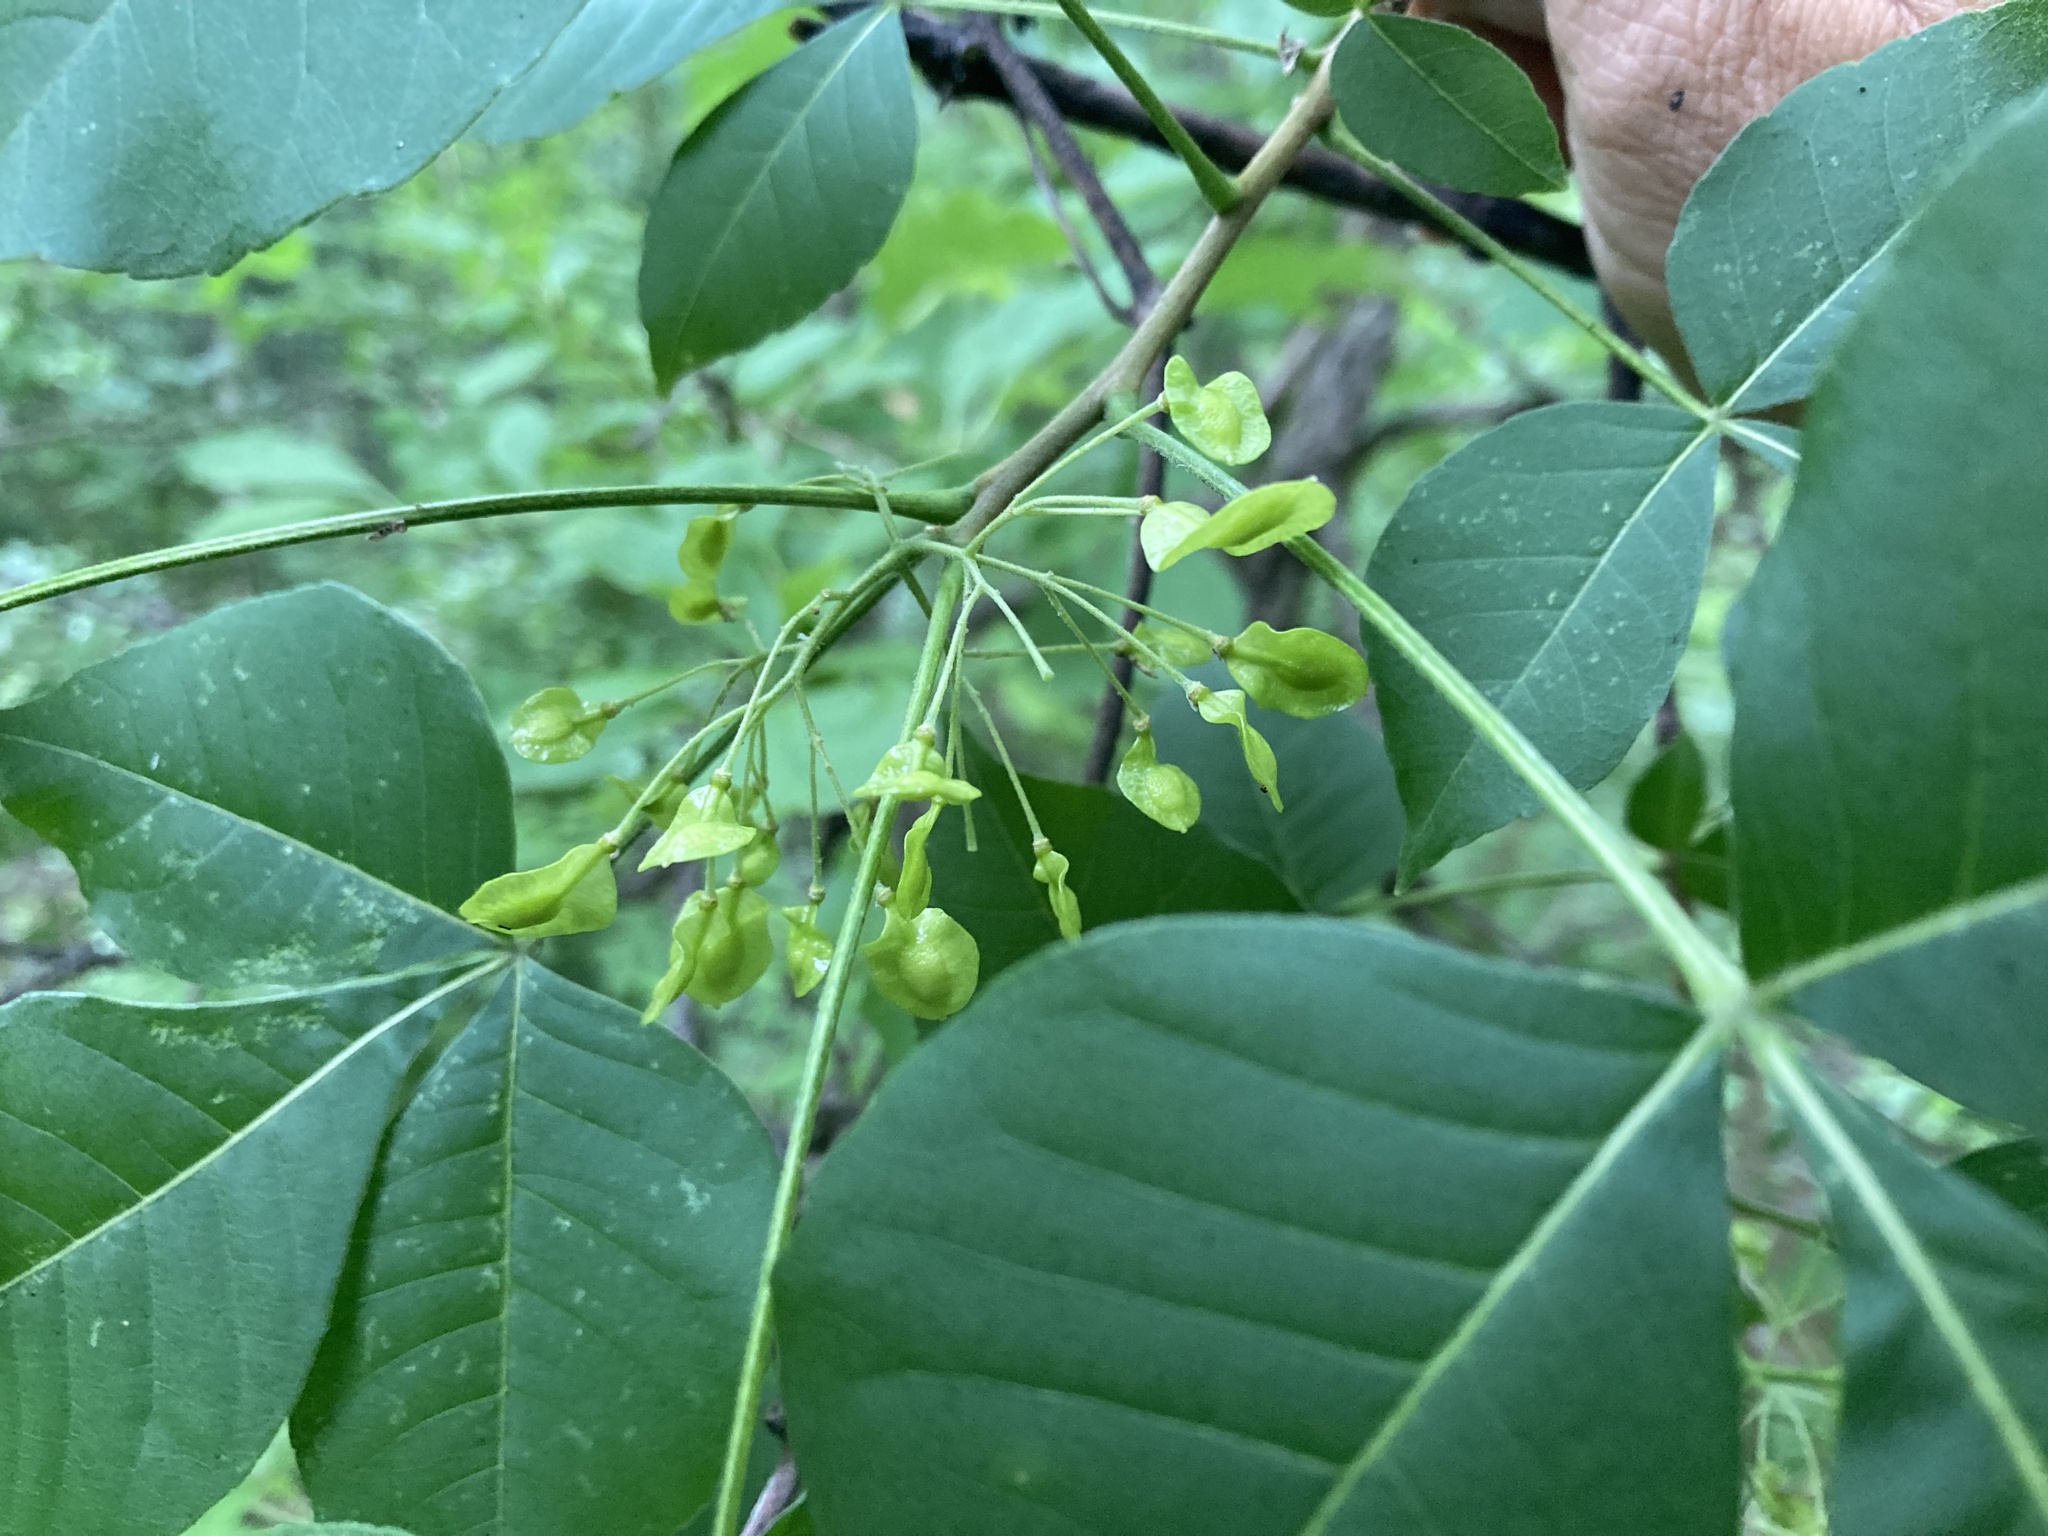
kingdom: Plantae
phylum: Tracheophyta
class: Magnoliopsida
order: Sapindales
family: Rutaceae
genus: Ptelea
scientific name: Ptelea trifoliata
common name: Common hop-tree
